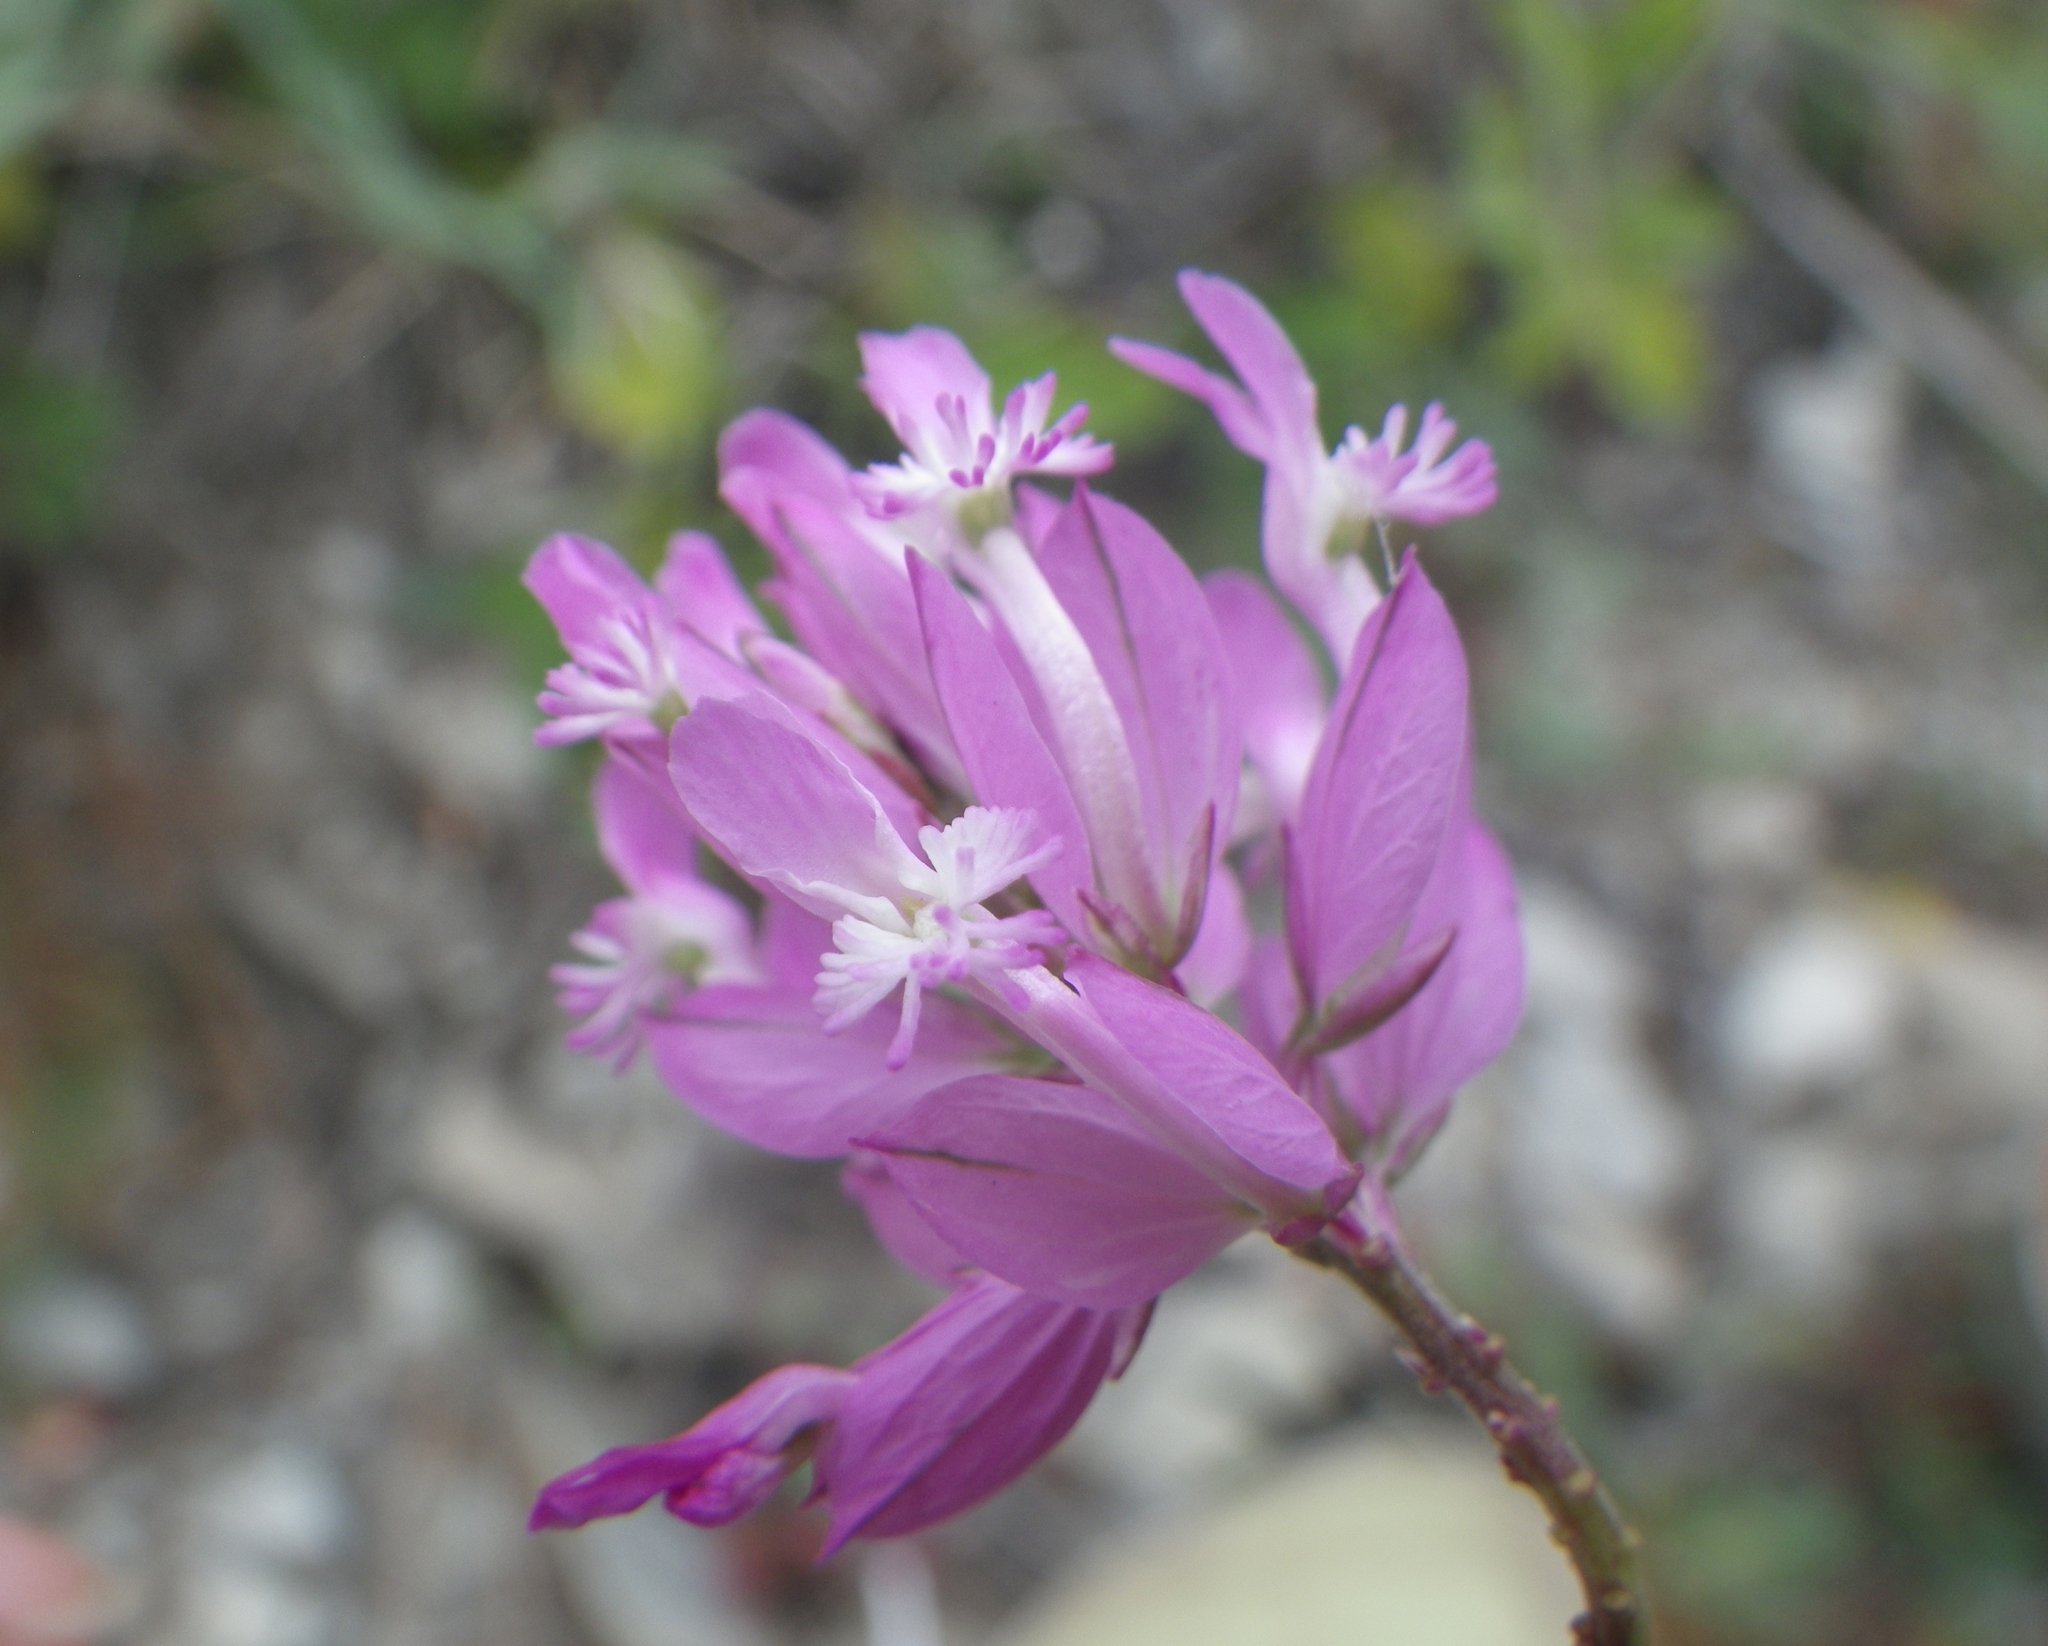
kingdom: Plantae
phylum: Tracheophyta
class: Magnoliopsida
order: Fabales
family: Polygalaceae
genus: Polygala
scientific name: Polygala major
